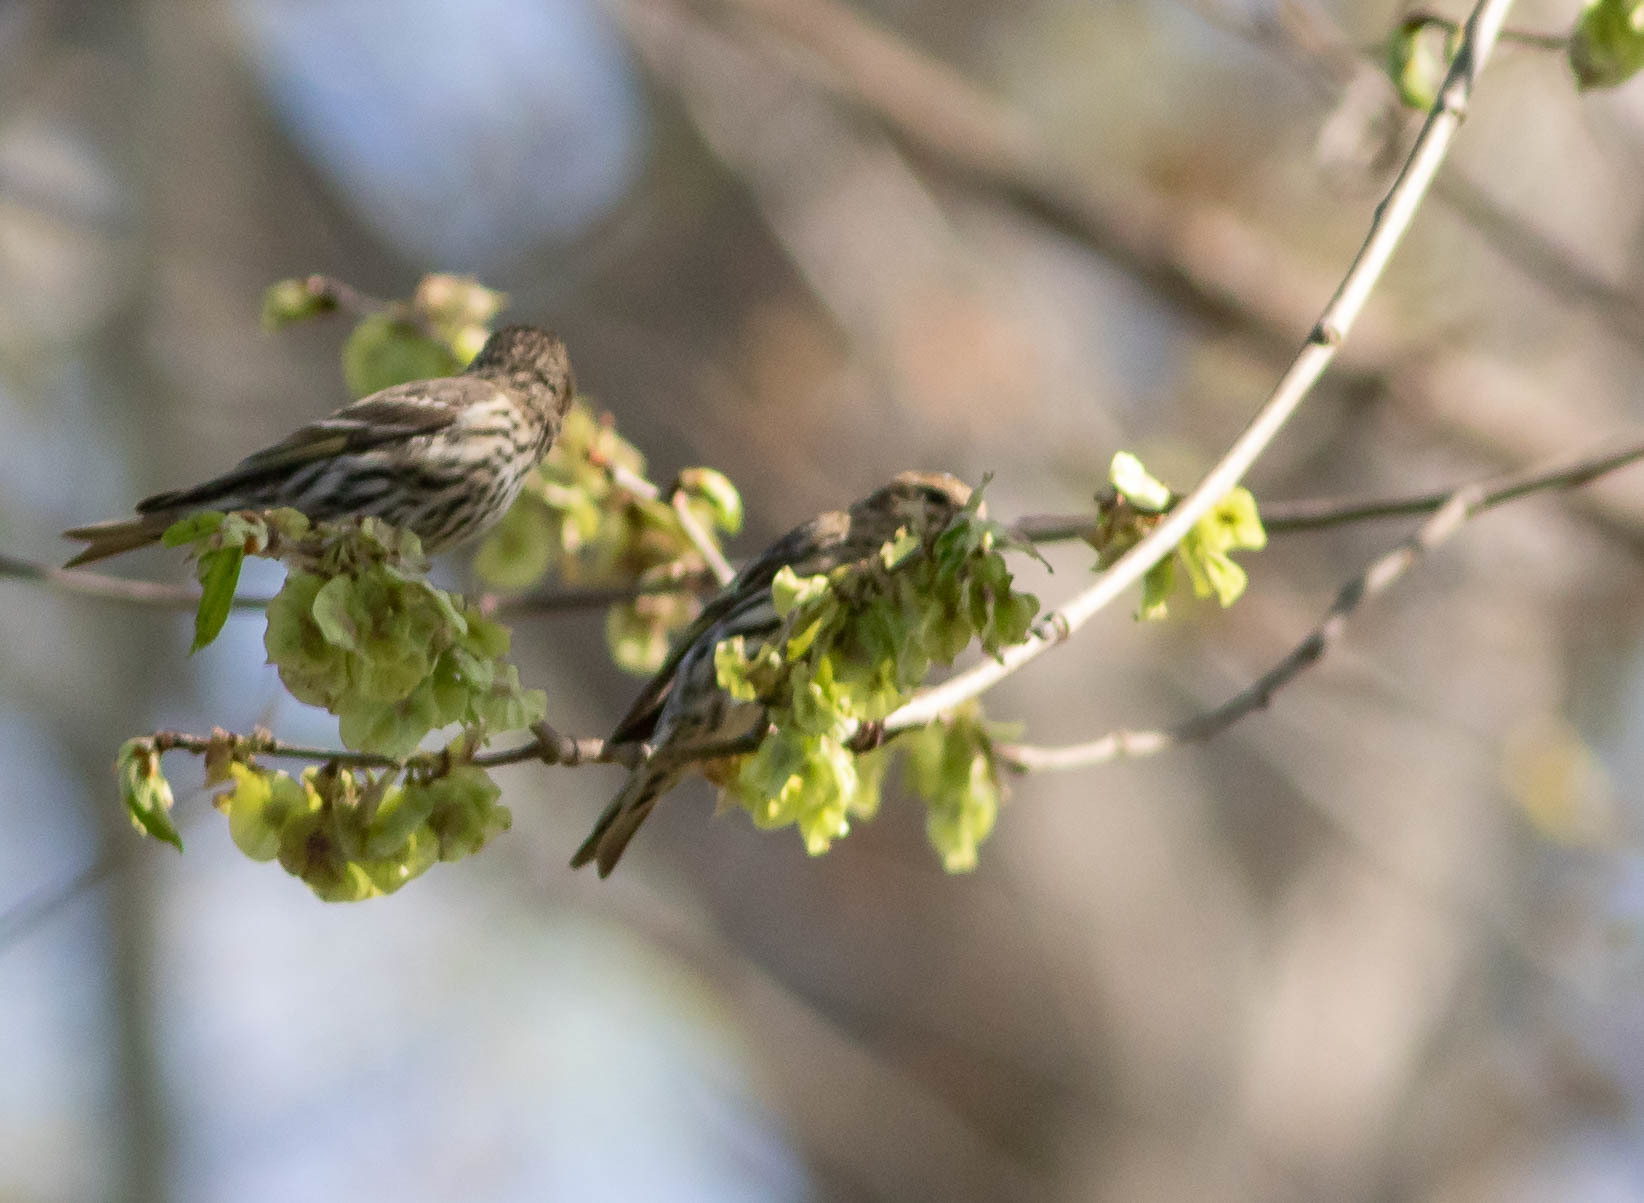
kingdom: Animalia
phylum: Chordata
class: Aves
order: Passeriformes
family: Fringillidae
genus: Spinus
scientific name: Spinus pinus
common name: Pine siskin
